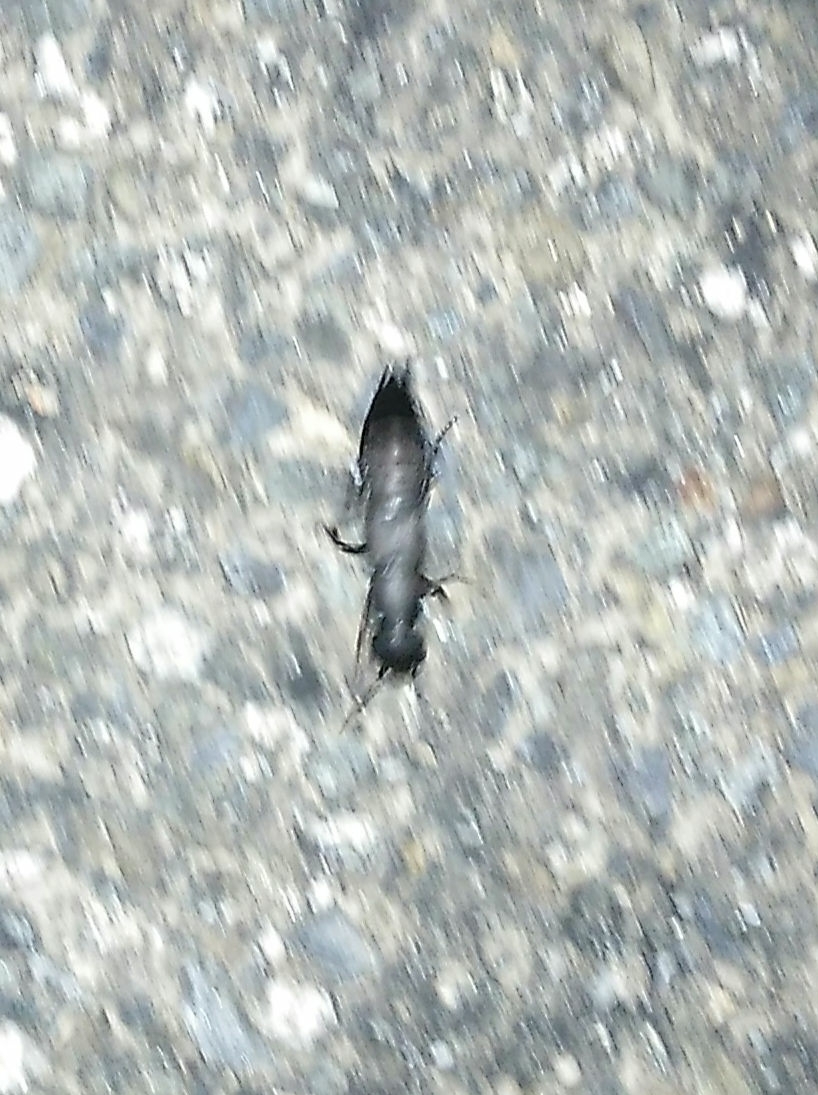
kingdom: Animalia
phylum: Arthropoda
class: Insecta
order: Coleoptera
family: Staphylinidae
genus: Ocypus
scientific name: Ocypus olens
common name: Devil's coach-horse
